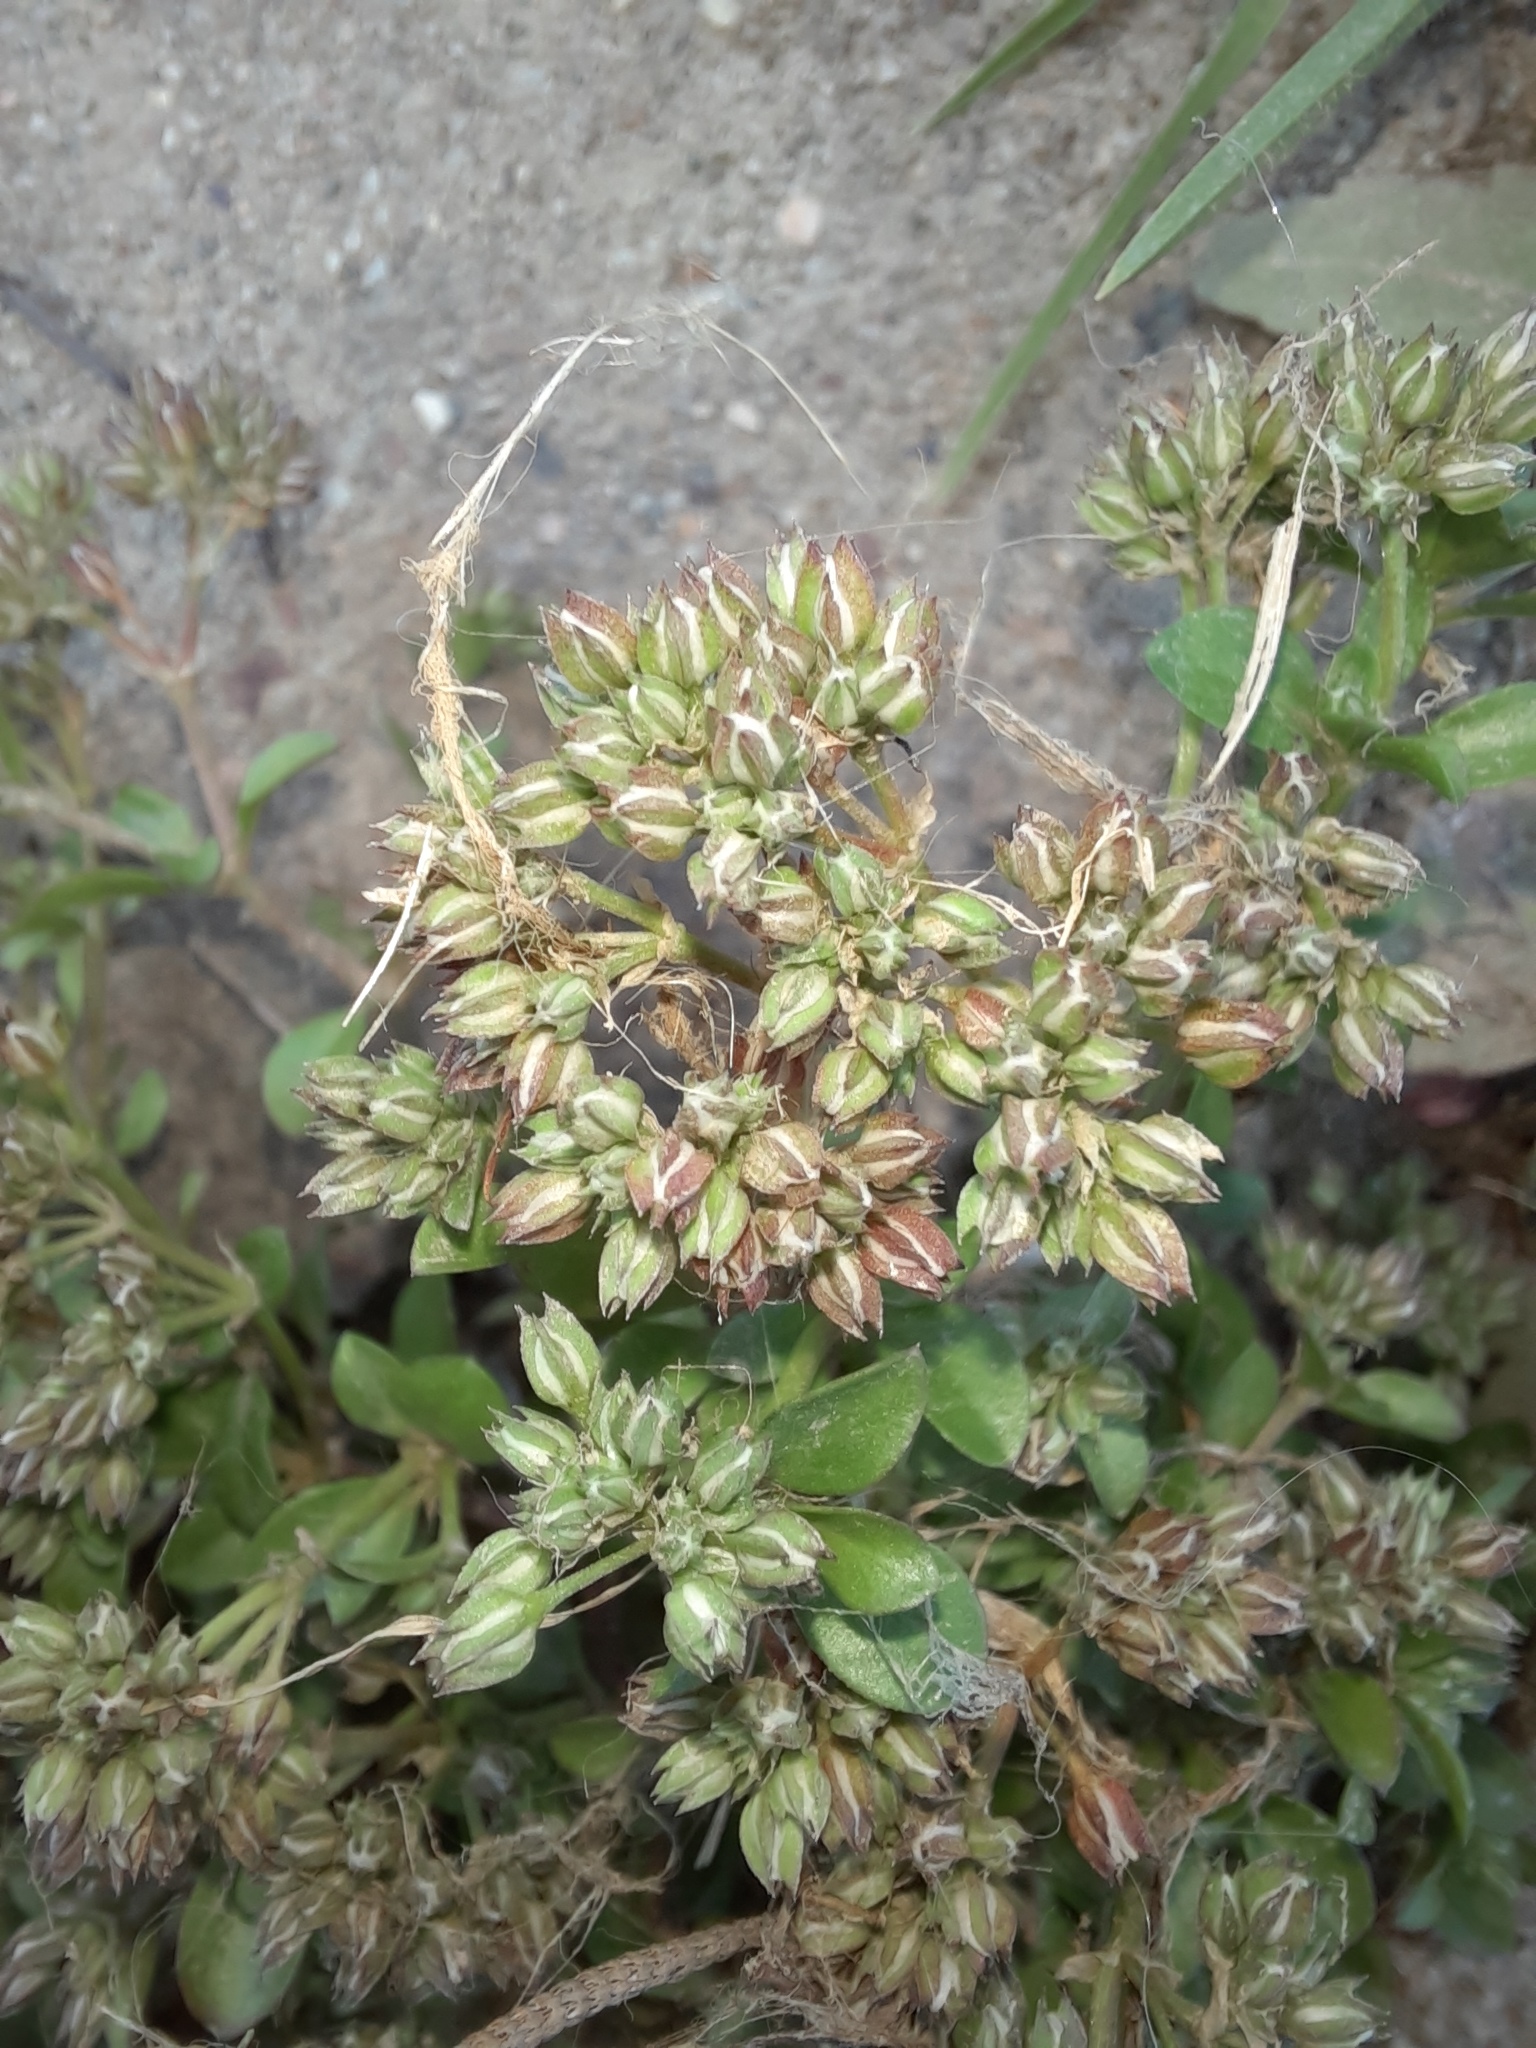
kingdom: Plantae
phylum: Tracheophyta
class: Magnoliopsida
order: Caryophyllales
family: Caryophyllaceae
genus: Polycarpon
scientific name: Polycarpon tetraphyllum
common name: Four-leaved all-seed
